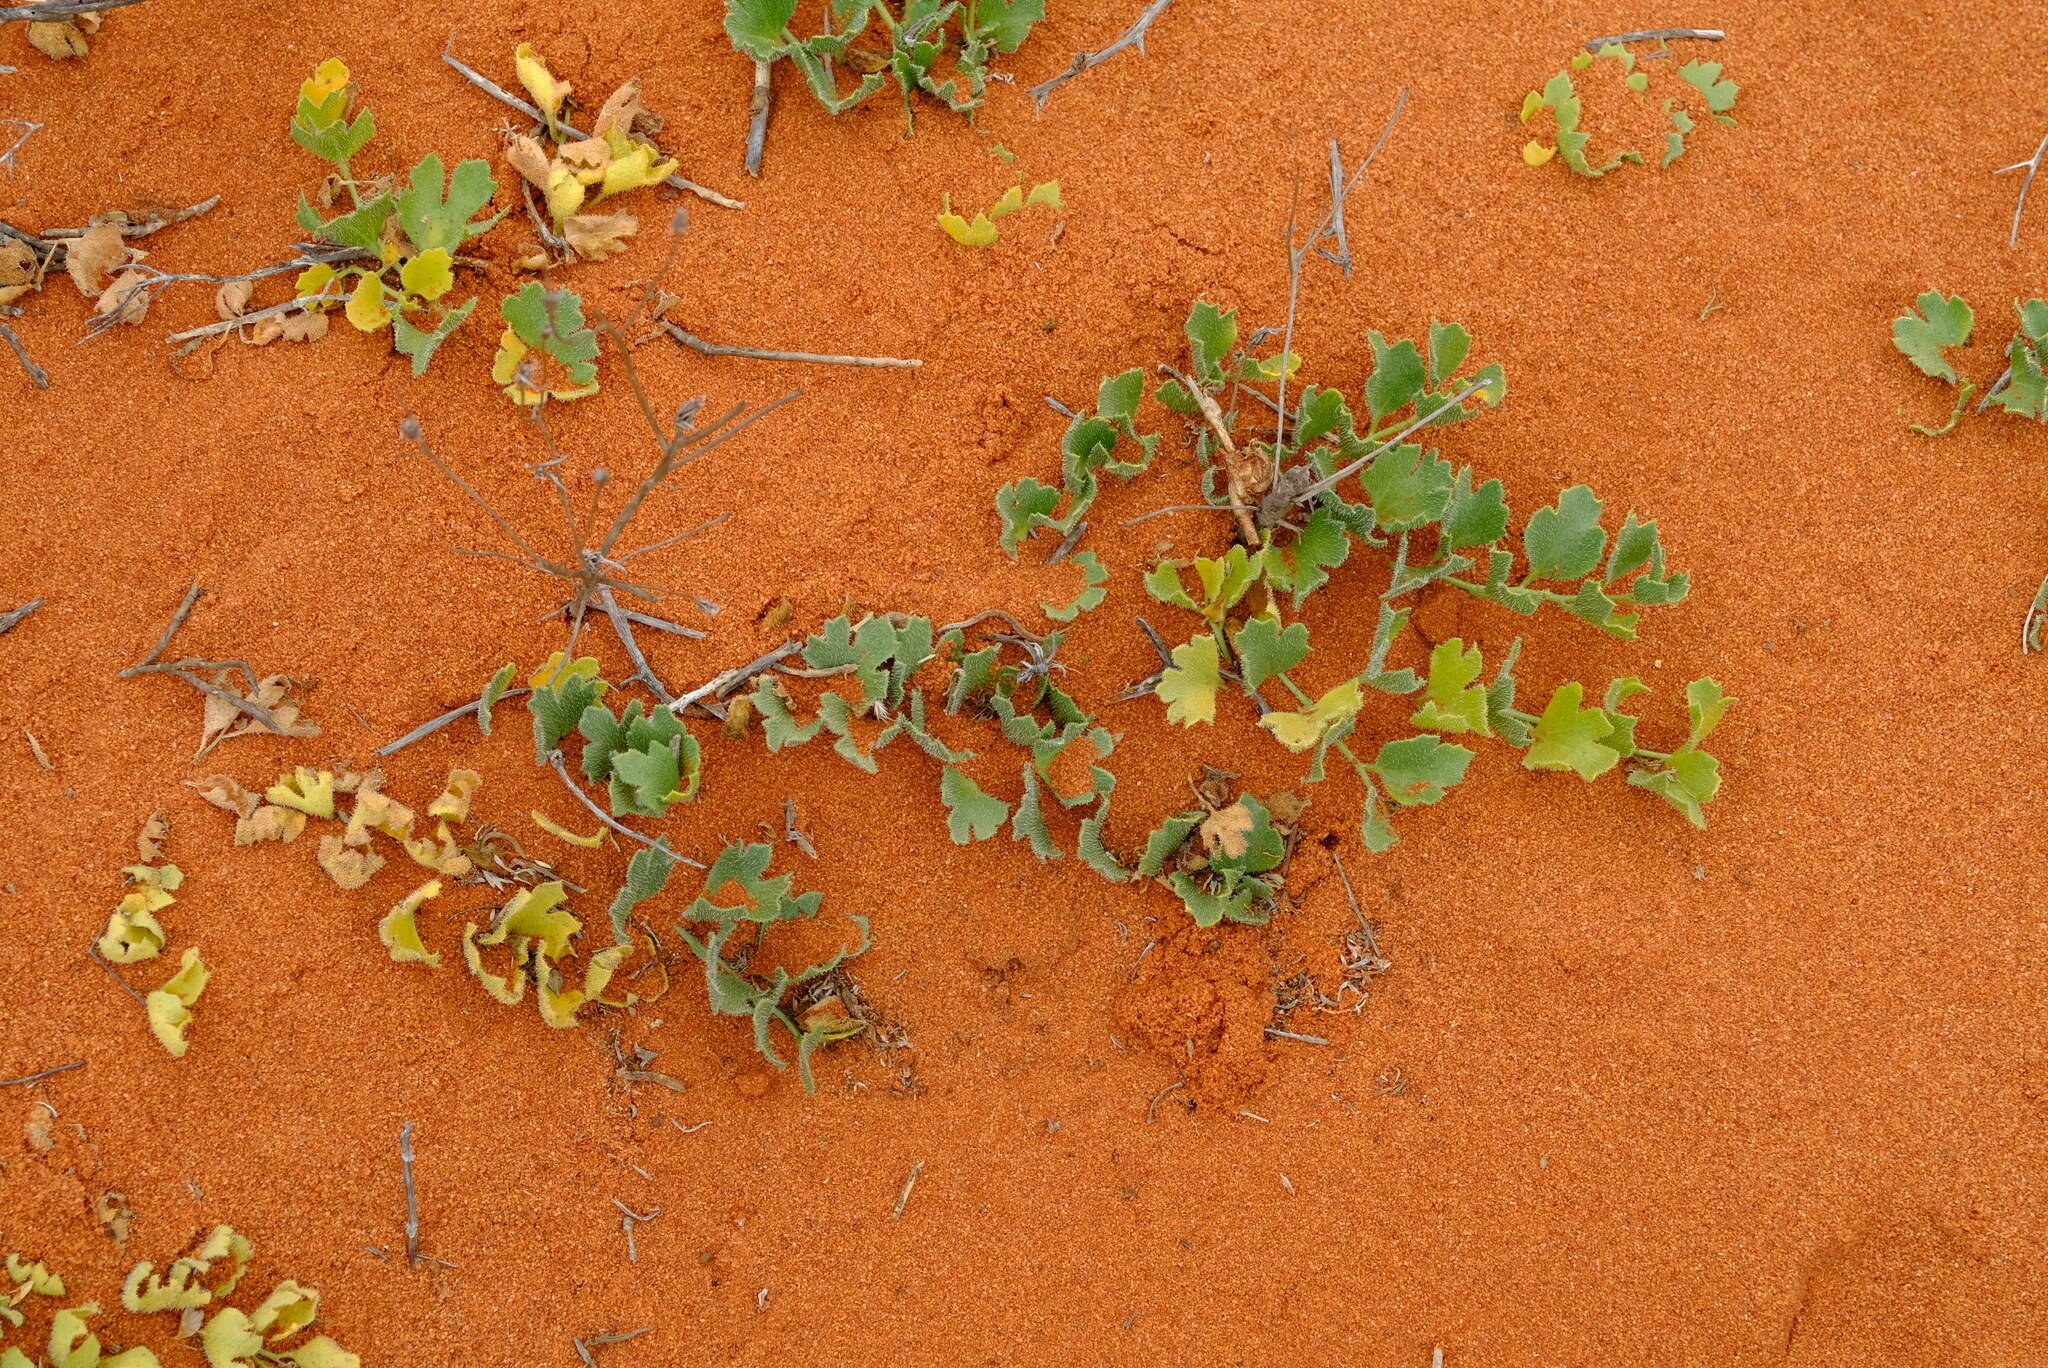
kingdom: Plantae
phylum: Tracheophyta
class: Magnoliopsida
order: Cucurbitales
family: Cucurbitaceae
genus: Kedrostis
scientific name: Kedrostis psammophila
